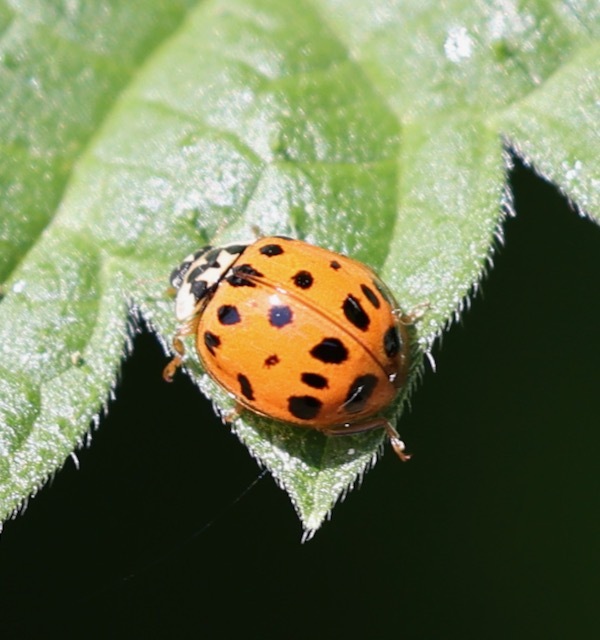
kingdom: Animalia
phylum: Arthropoda
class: Insecta
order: Coleoptera
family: Coccinellidae
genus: Harmonia
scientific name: Harmonia axyridis
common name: Harlequin ladybird
